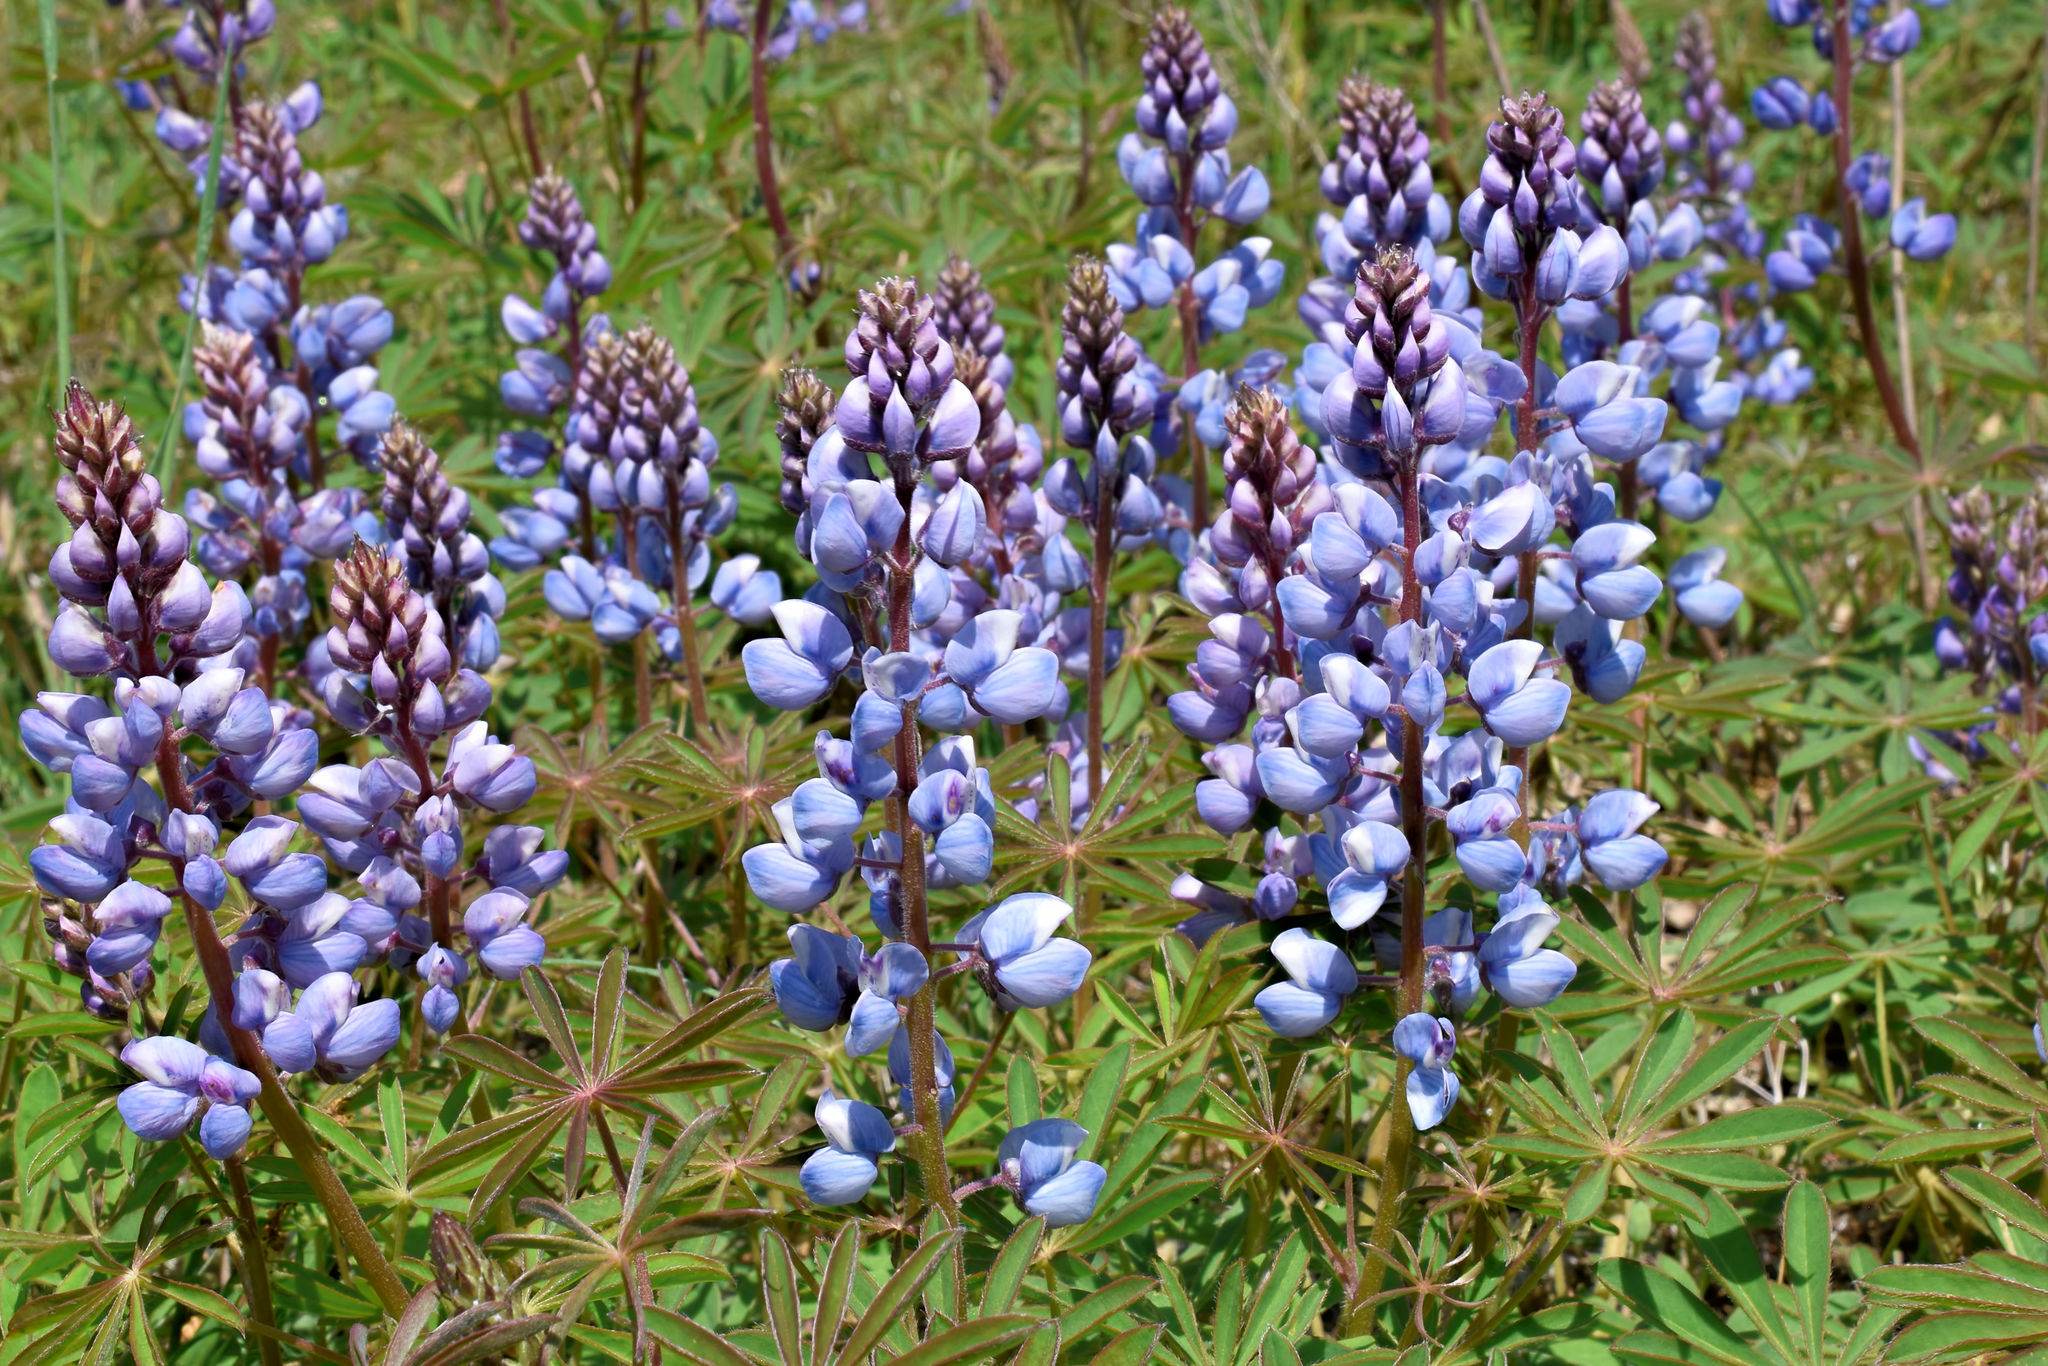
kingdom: Plantae
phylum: Tracheophyta
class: Magnoliopsida
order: Fabales
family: Fabaceae
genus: Lupinus
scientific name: Lupinus perennis
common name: Sundial lupine
